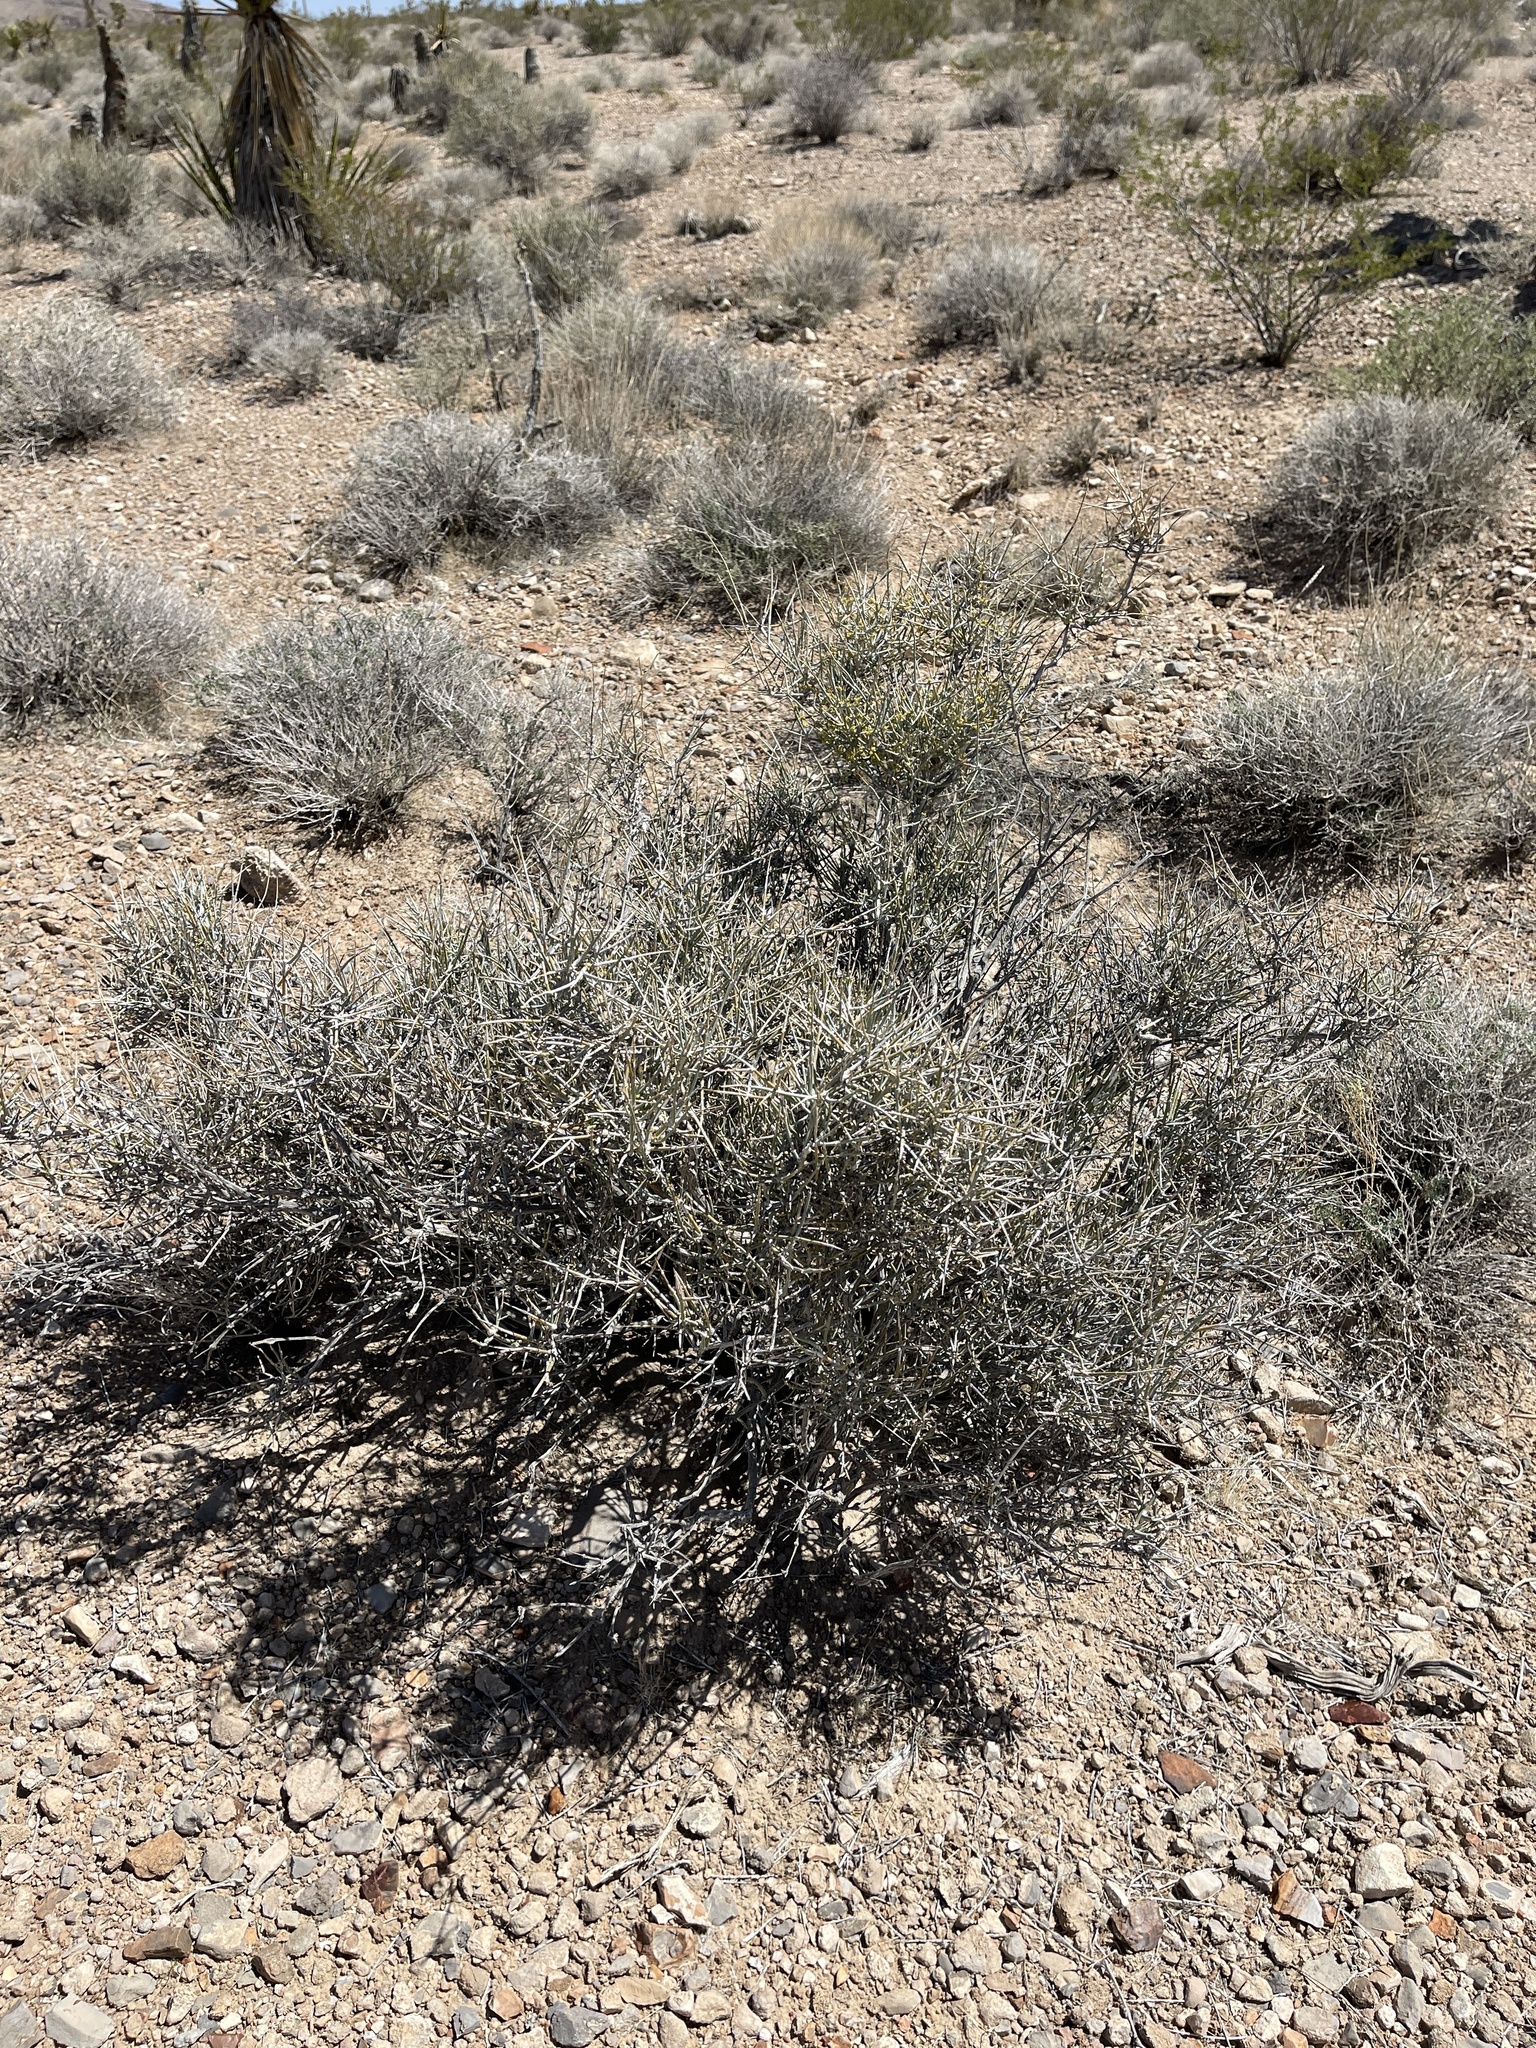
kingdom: Plantae
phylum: Tracheophyta
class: Gnetopsida
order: Ephedrales
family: Ephedraceae
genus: Ephedra
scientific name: Ephedra nevadensis
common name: Gray ephedra
